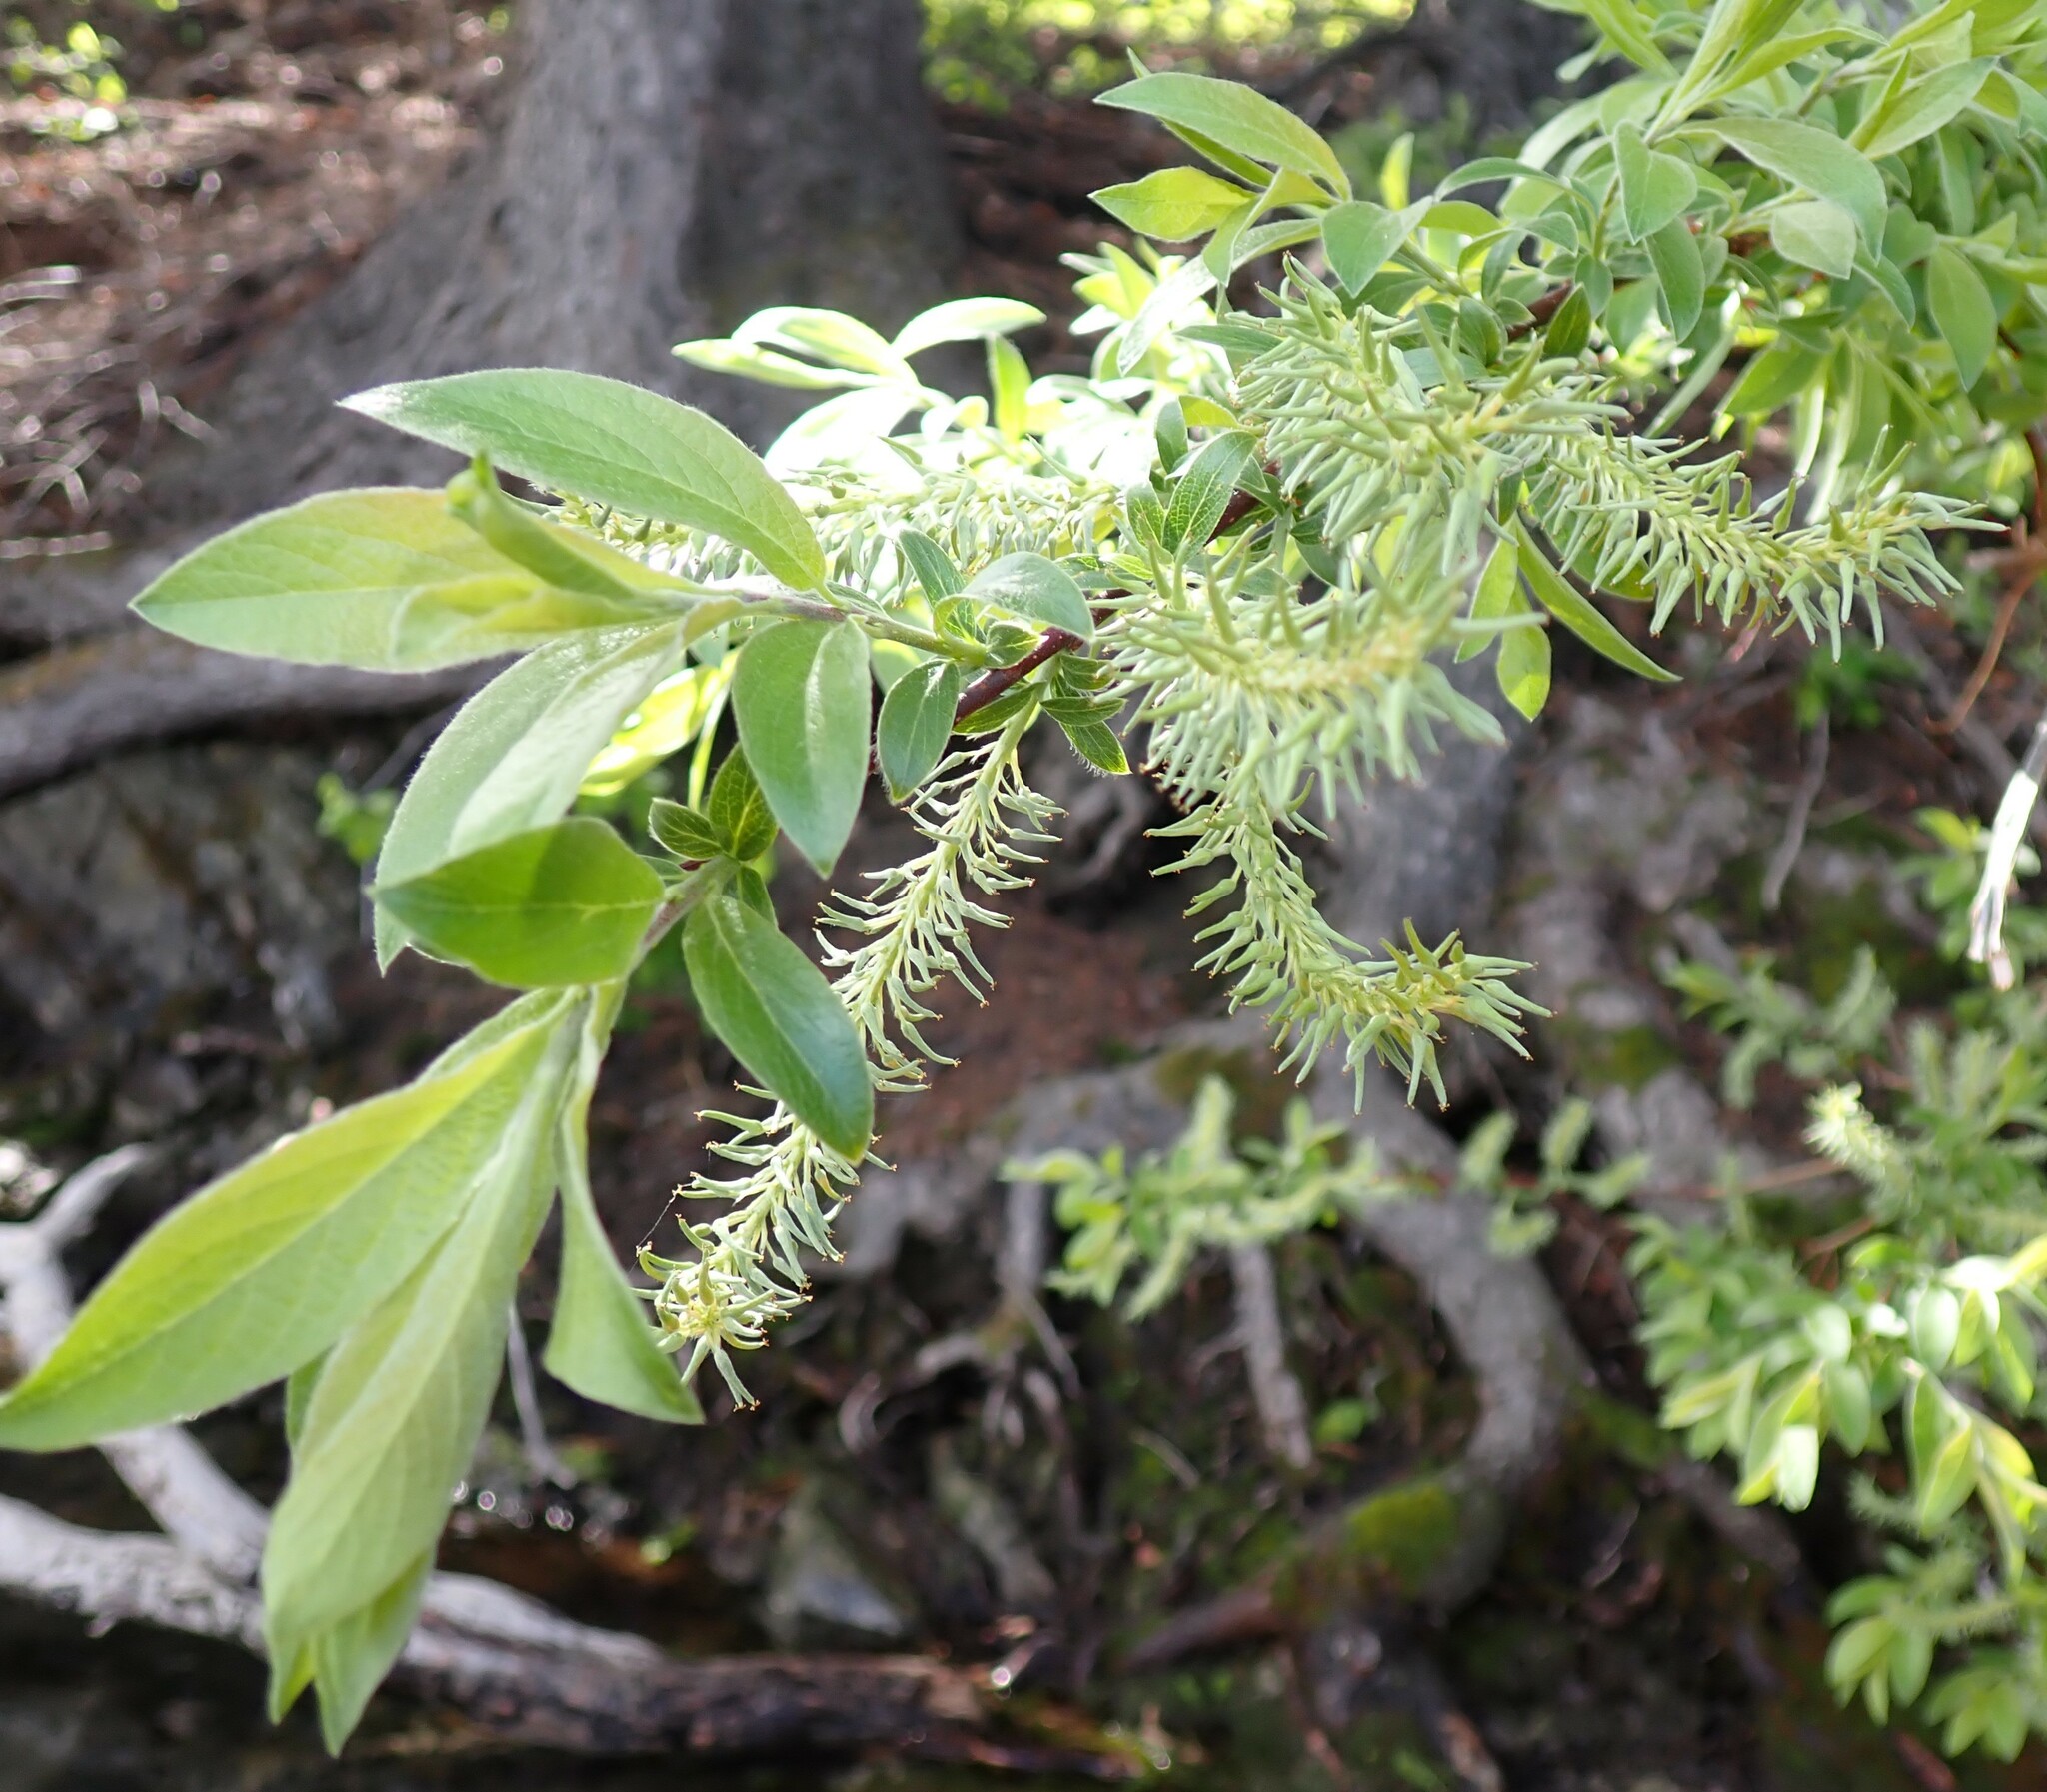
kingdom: Plantae
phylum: Tracheophyta
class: Magnoliopsida
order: Malpighiales
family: Salicaceae
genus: Salix
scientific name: Salix bebbiana
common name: Bebb's willow
